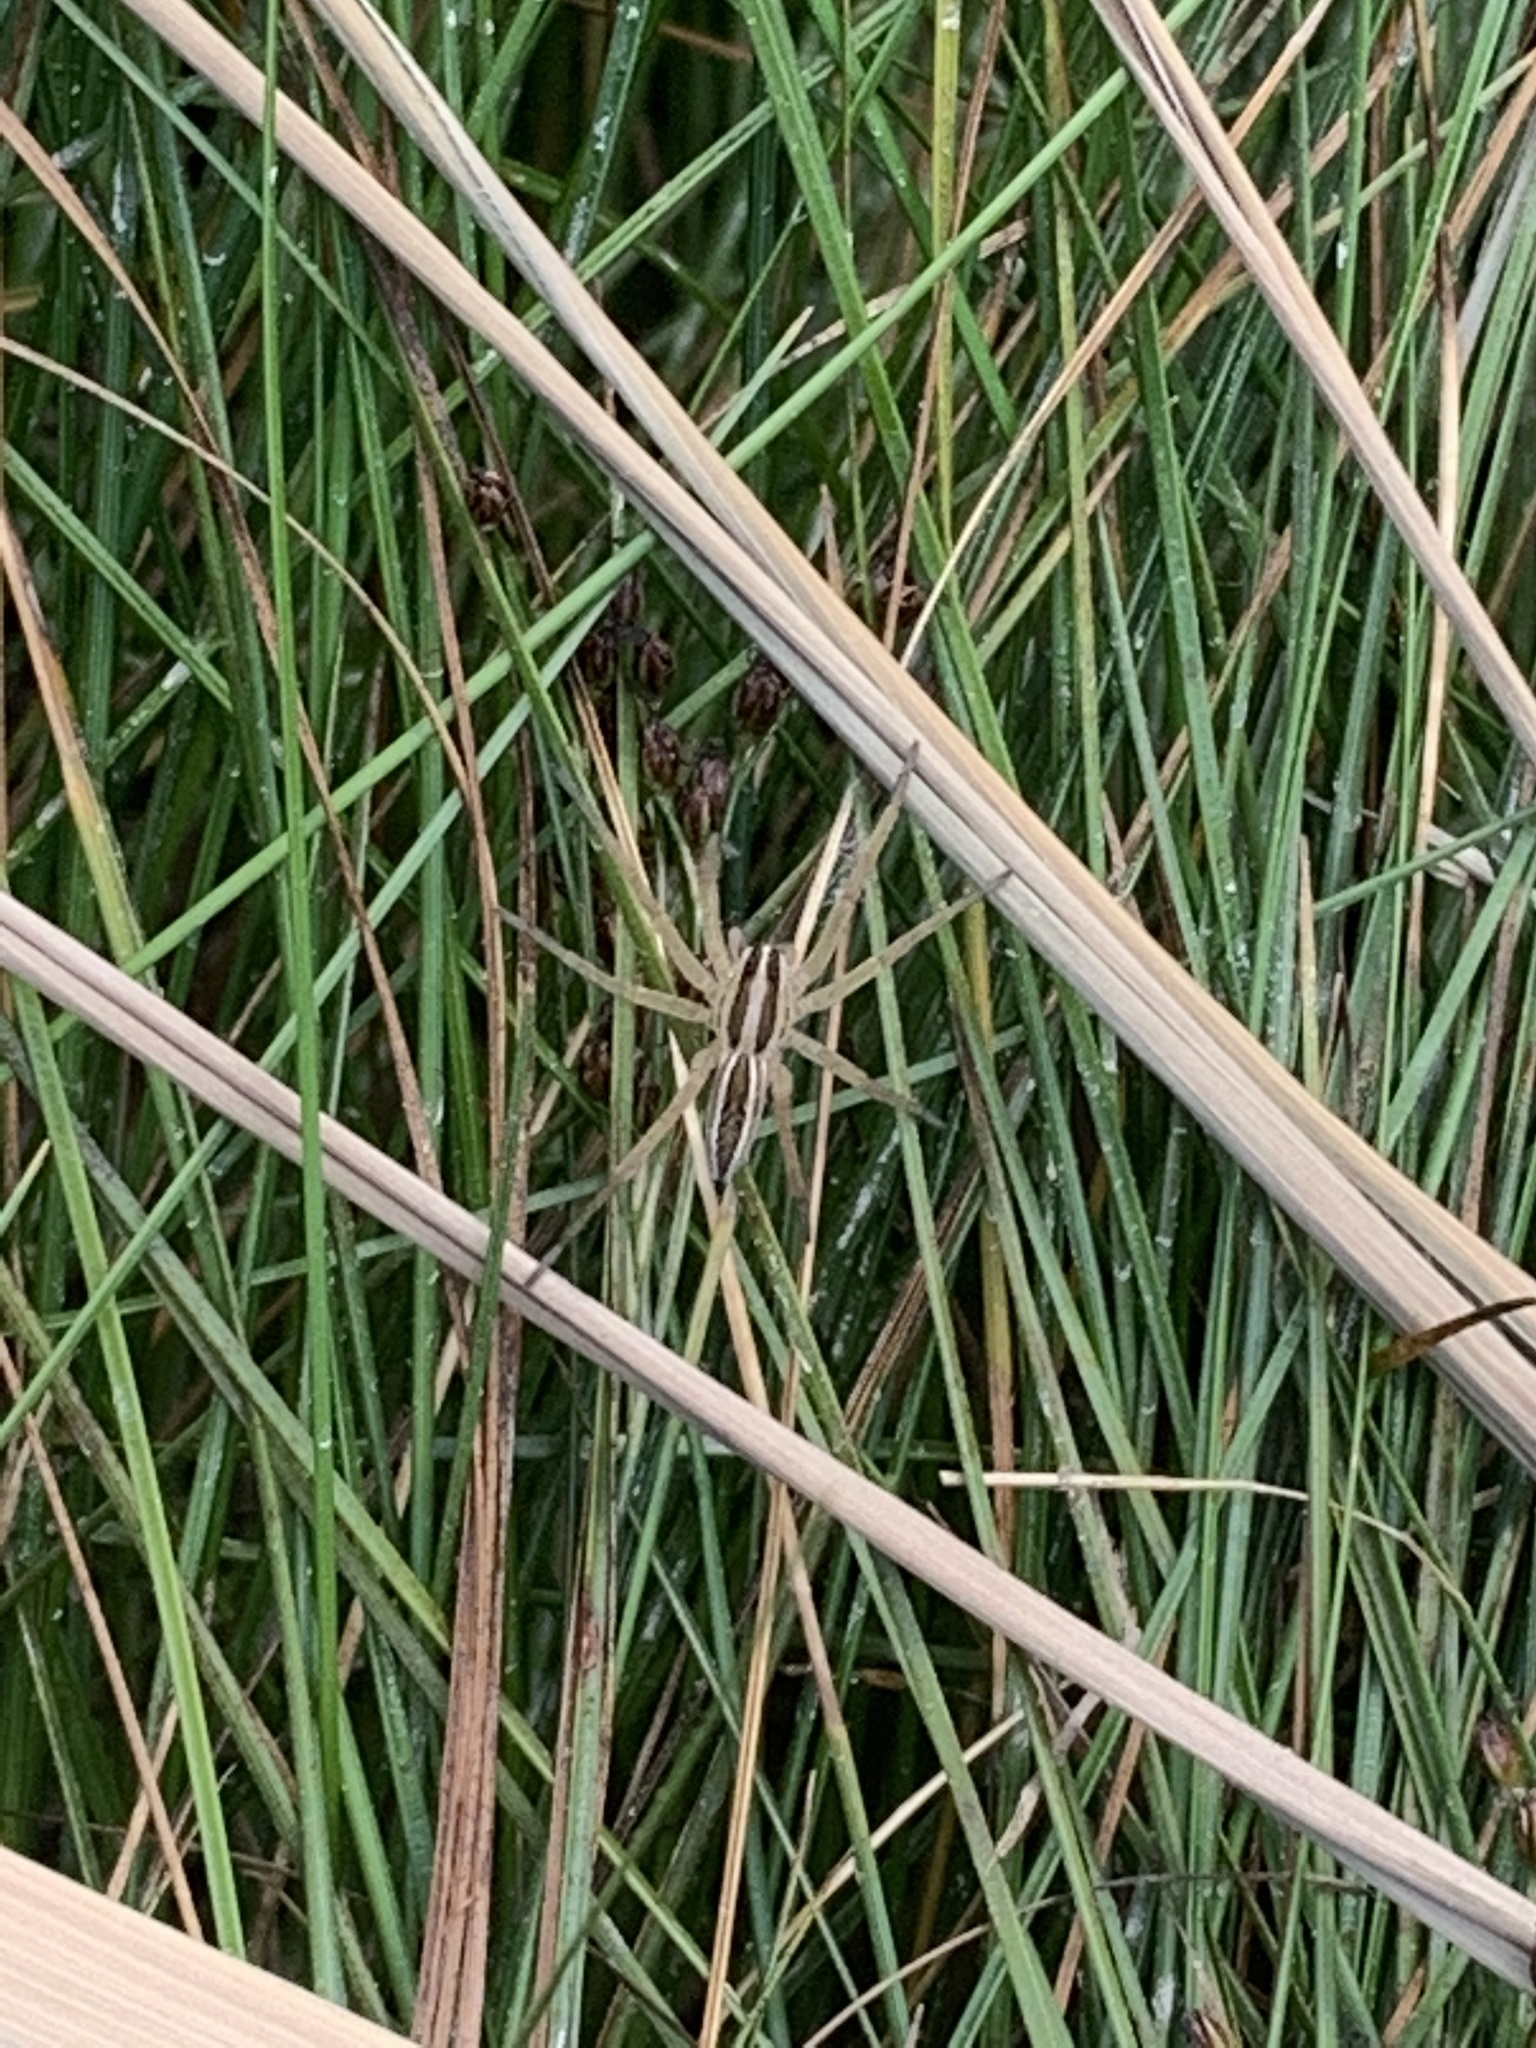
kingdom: Animalia
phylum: Arthropoda
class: Arachnida
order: Araneae
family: Lycosidae
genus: Rabidosa
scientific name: Rabidosa rabida
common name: Rabid wolf spider
